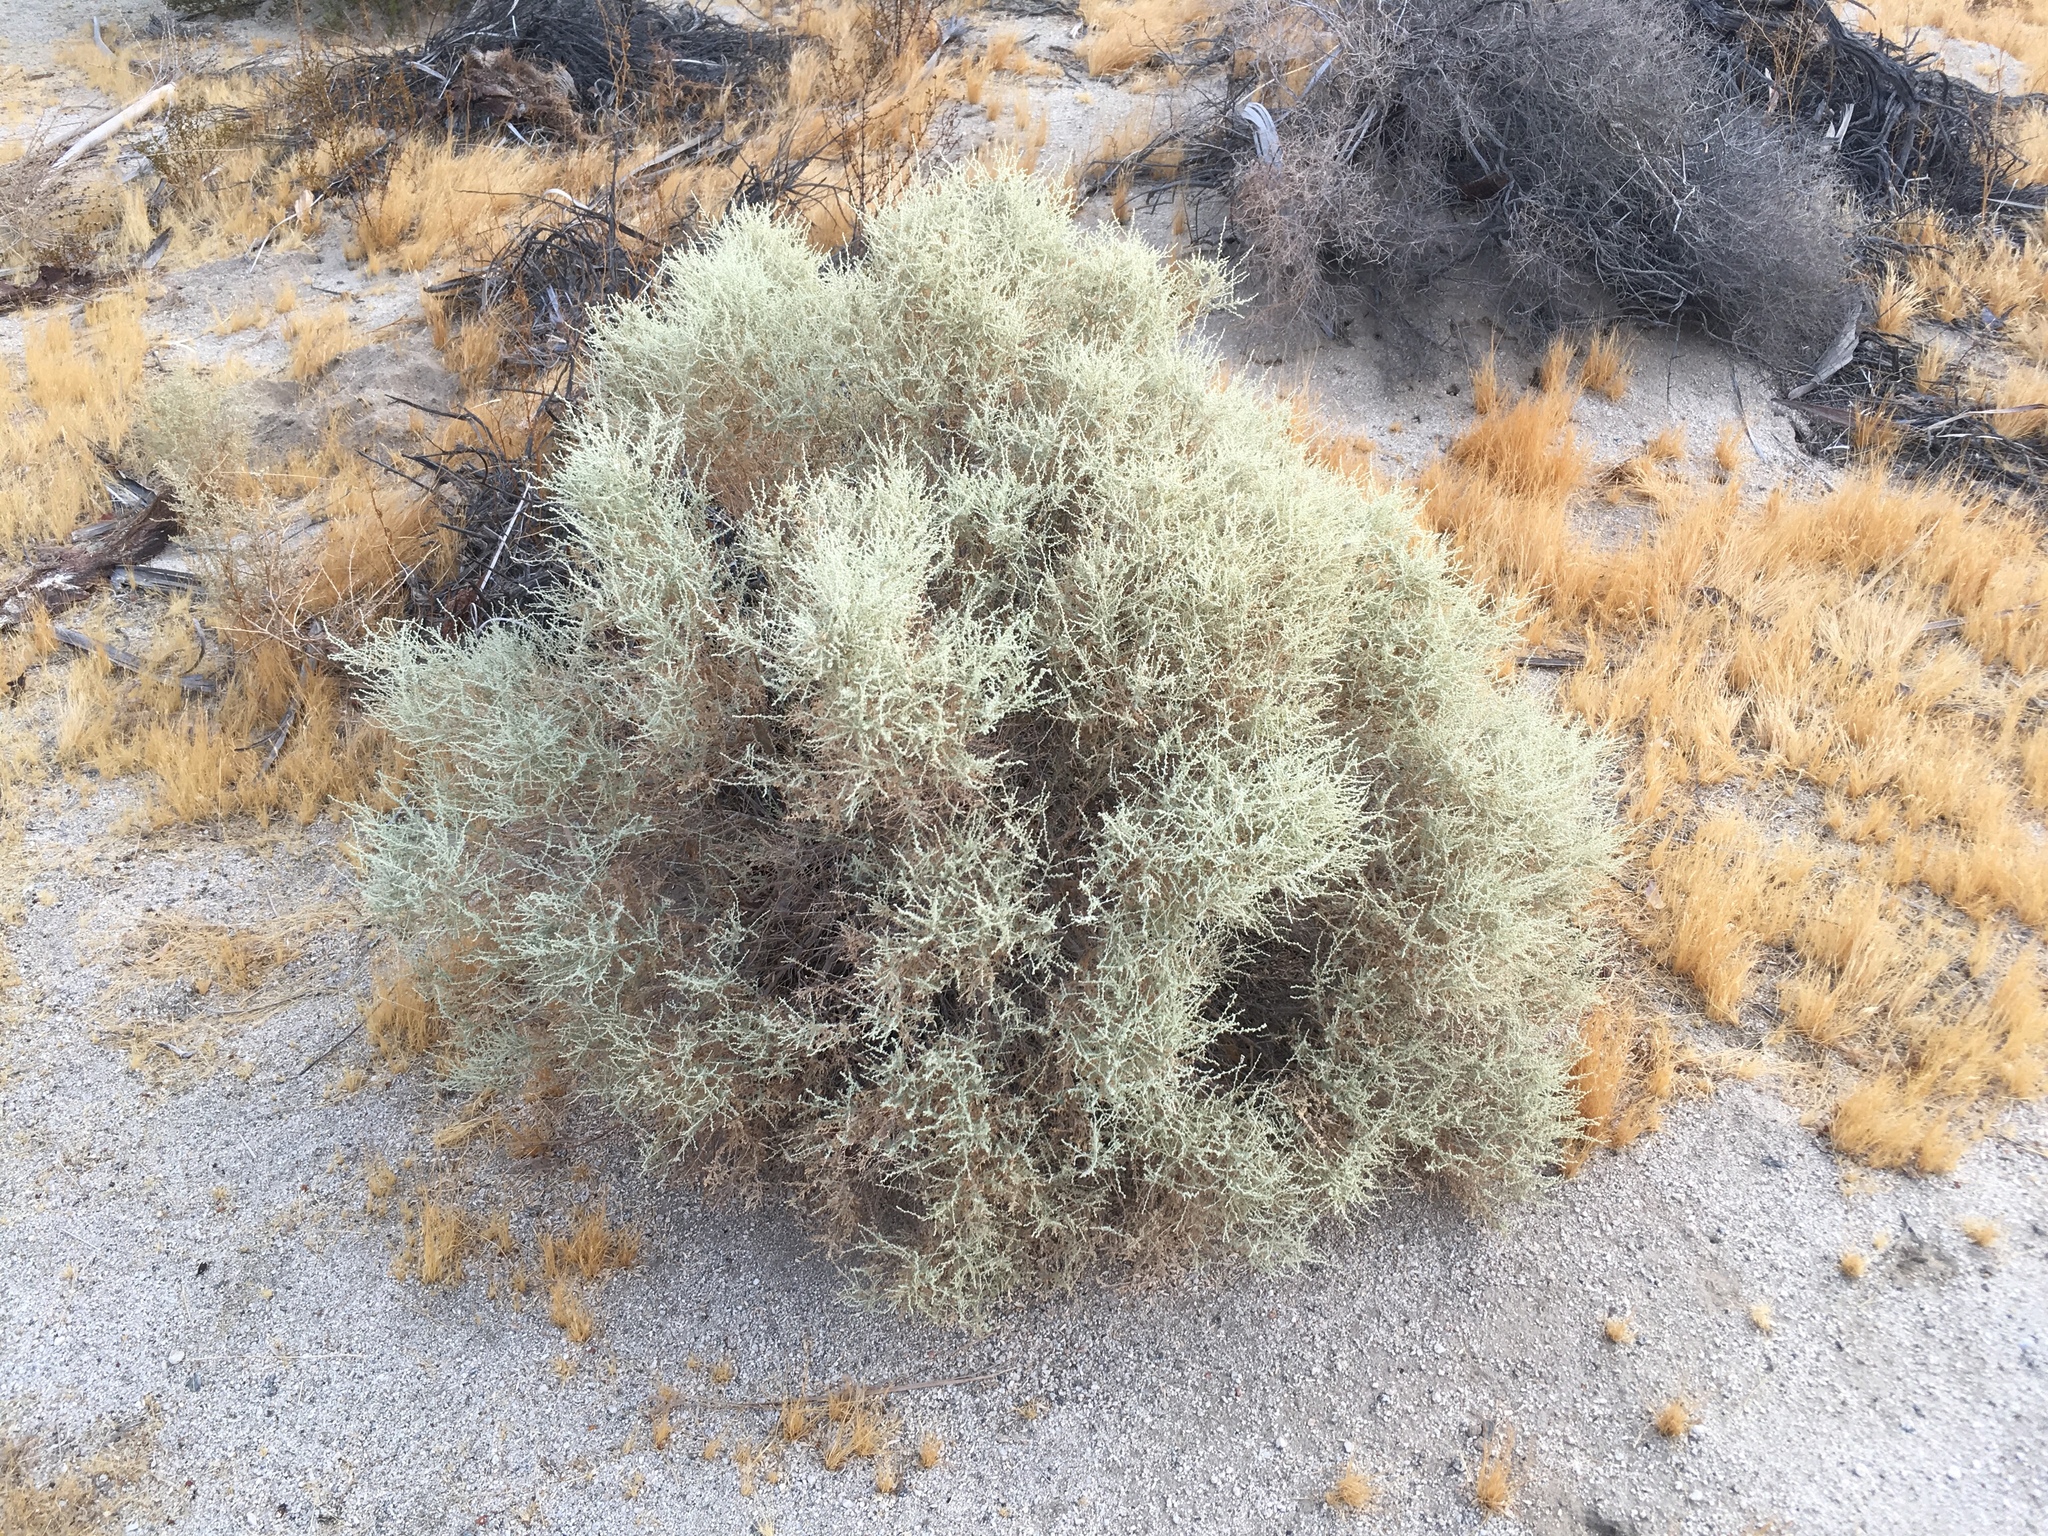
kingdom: Plantae
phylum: Tracheophyta
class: Magnoliopsida
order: Caryophyllales
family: Amaranthaceae
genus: Atriplex
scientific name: Atriplex polycarpa
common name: Desert saltbush
